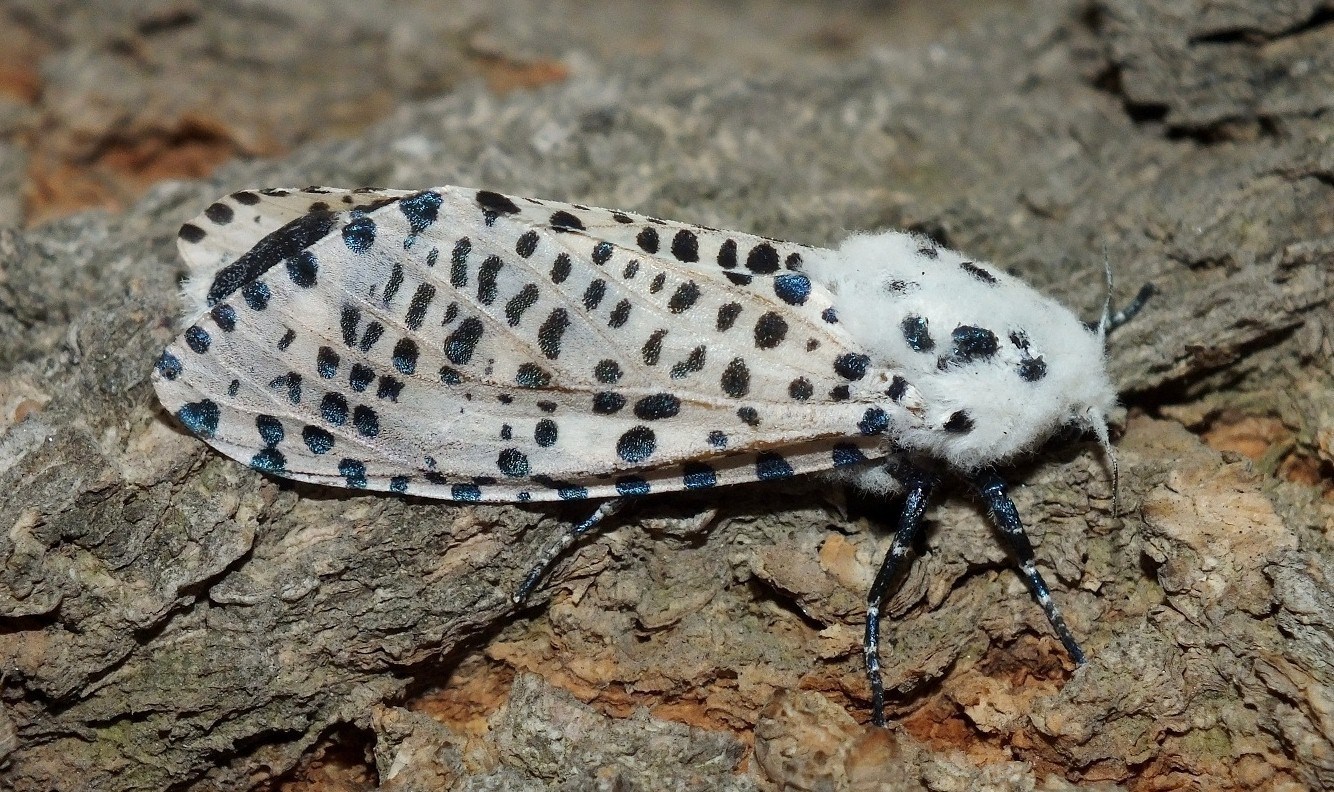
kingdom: Animalia
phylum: Arthropoda
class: Insecta
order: Lepidoptera
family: Cossidae
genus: Zeuzera
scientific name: Zeuzera pyrina
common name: Leopard moth
